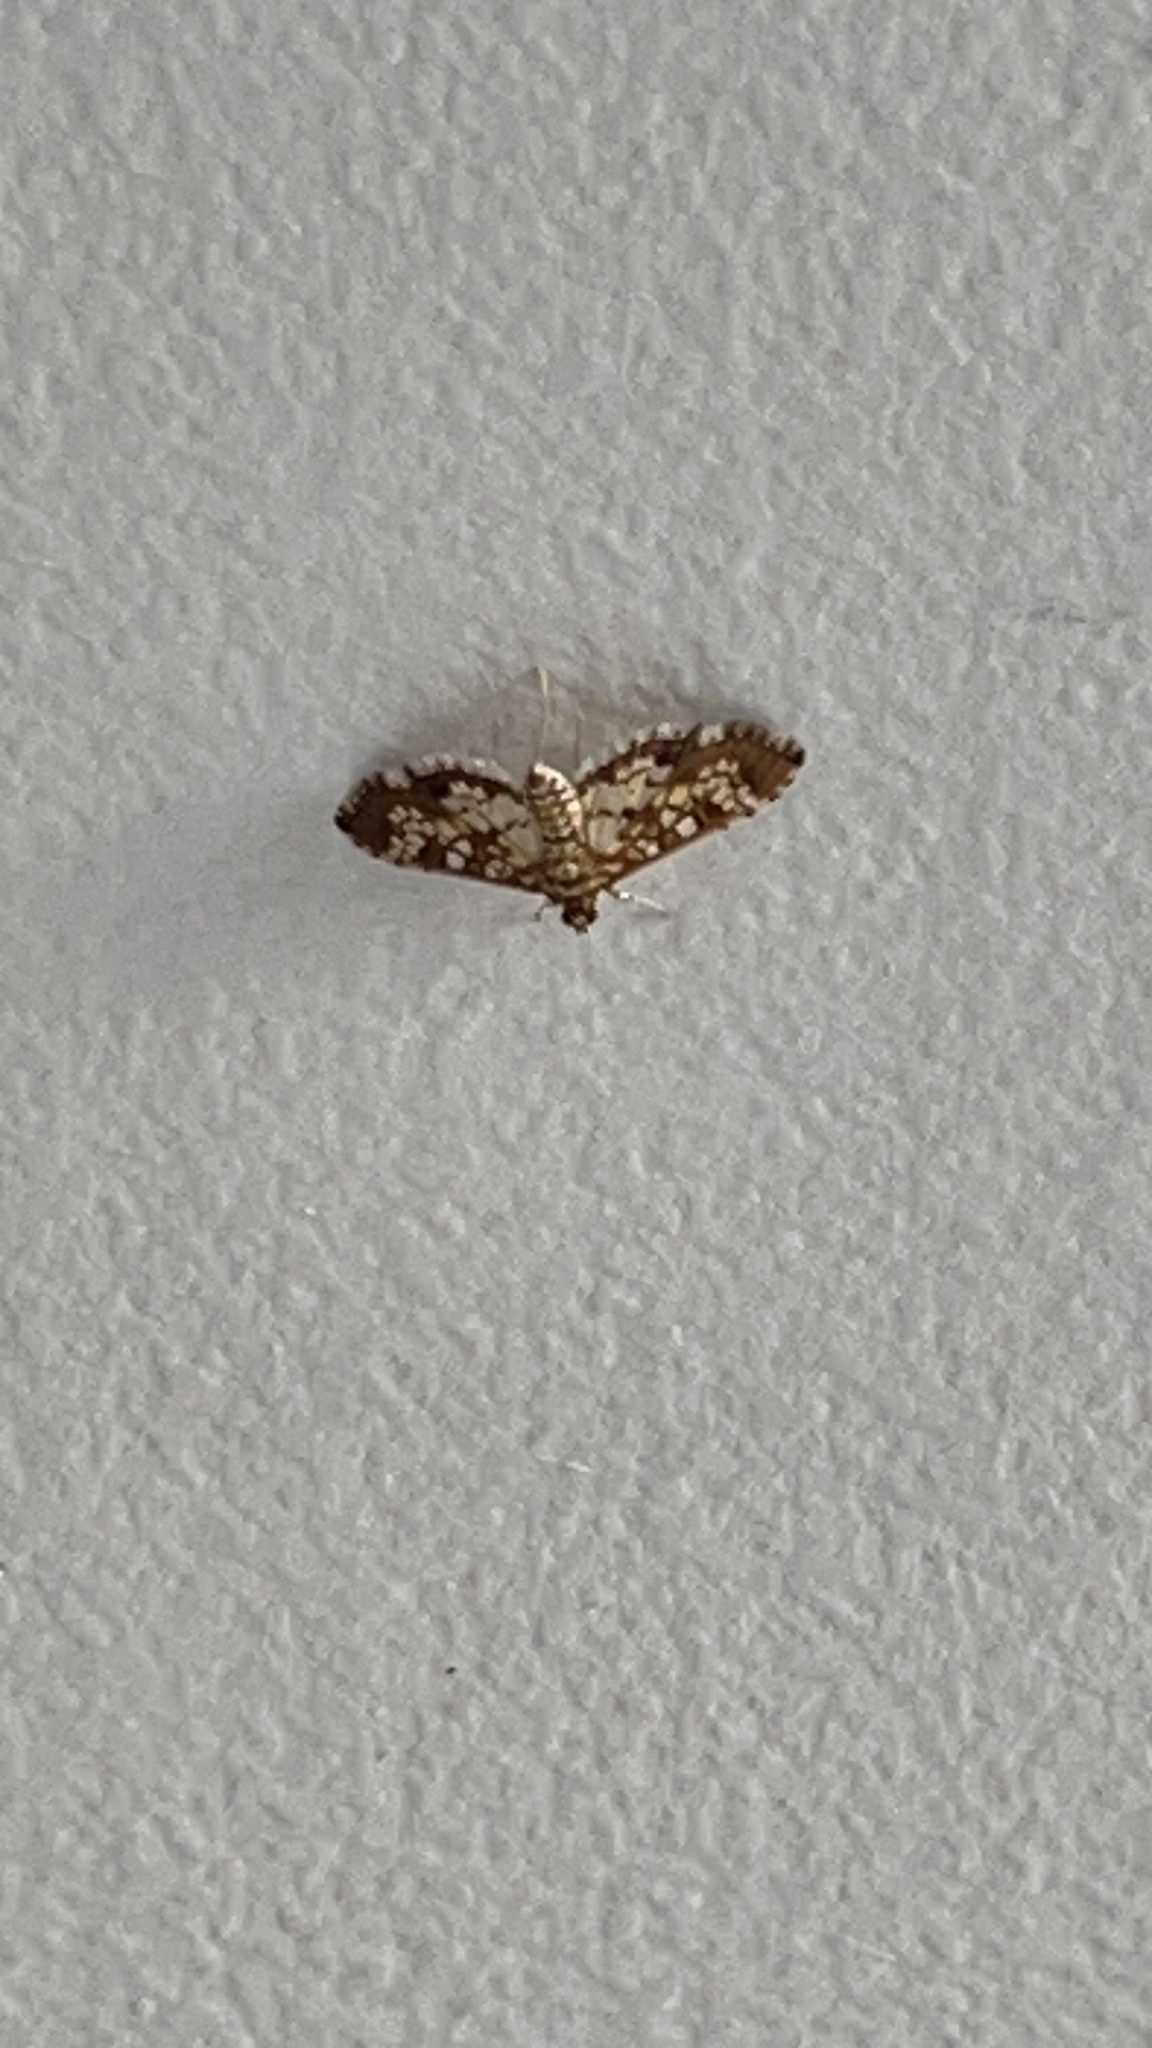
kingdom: Animalia
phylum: Arthropoda
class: Insecta
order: Lepidoptera
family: Crambidae
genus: Samea
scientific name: Samea ecclesialis
